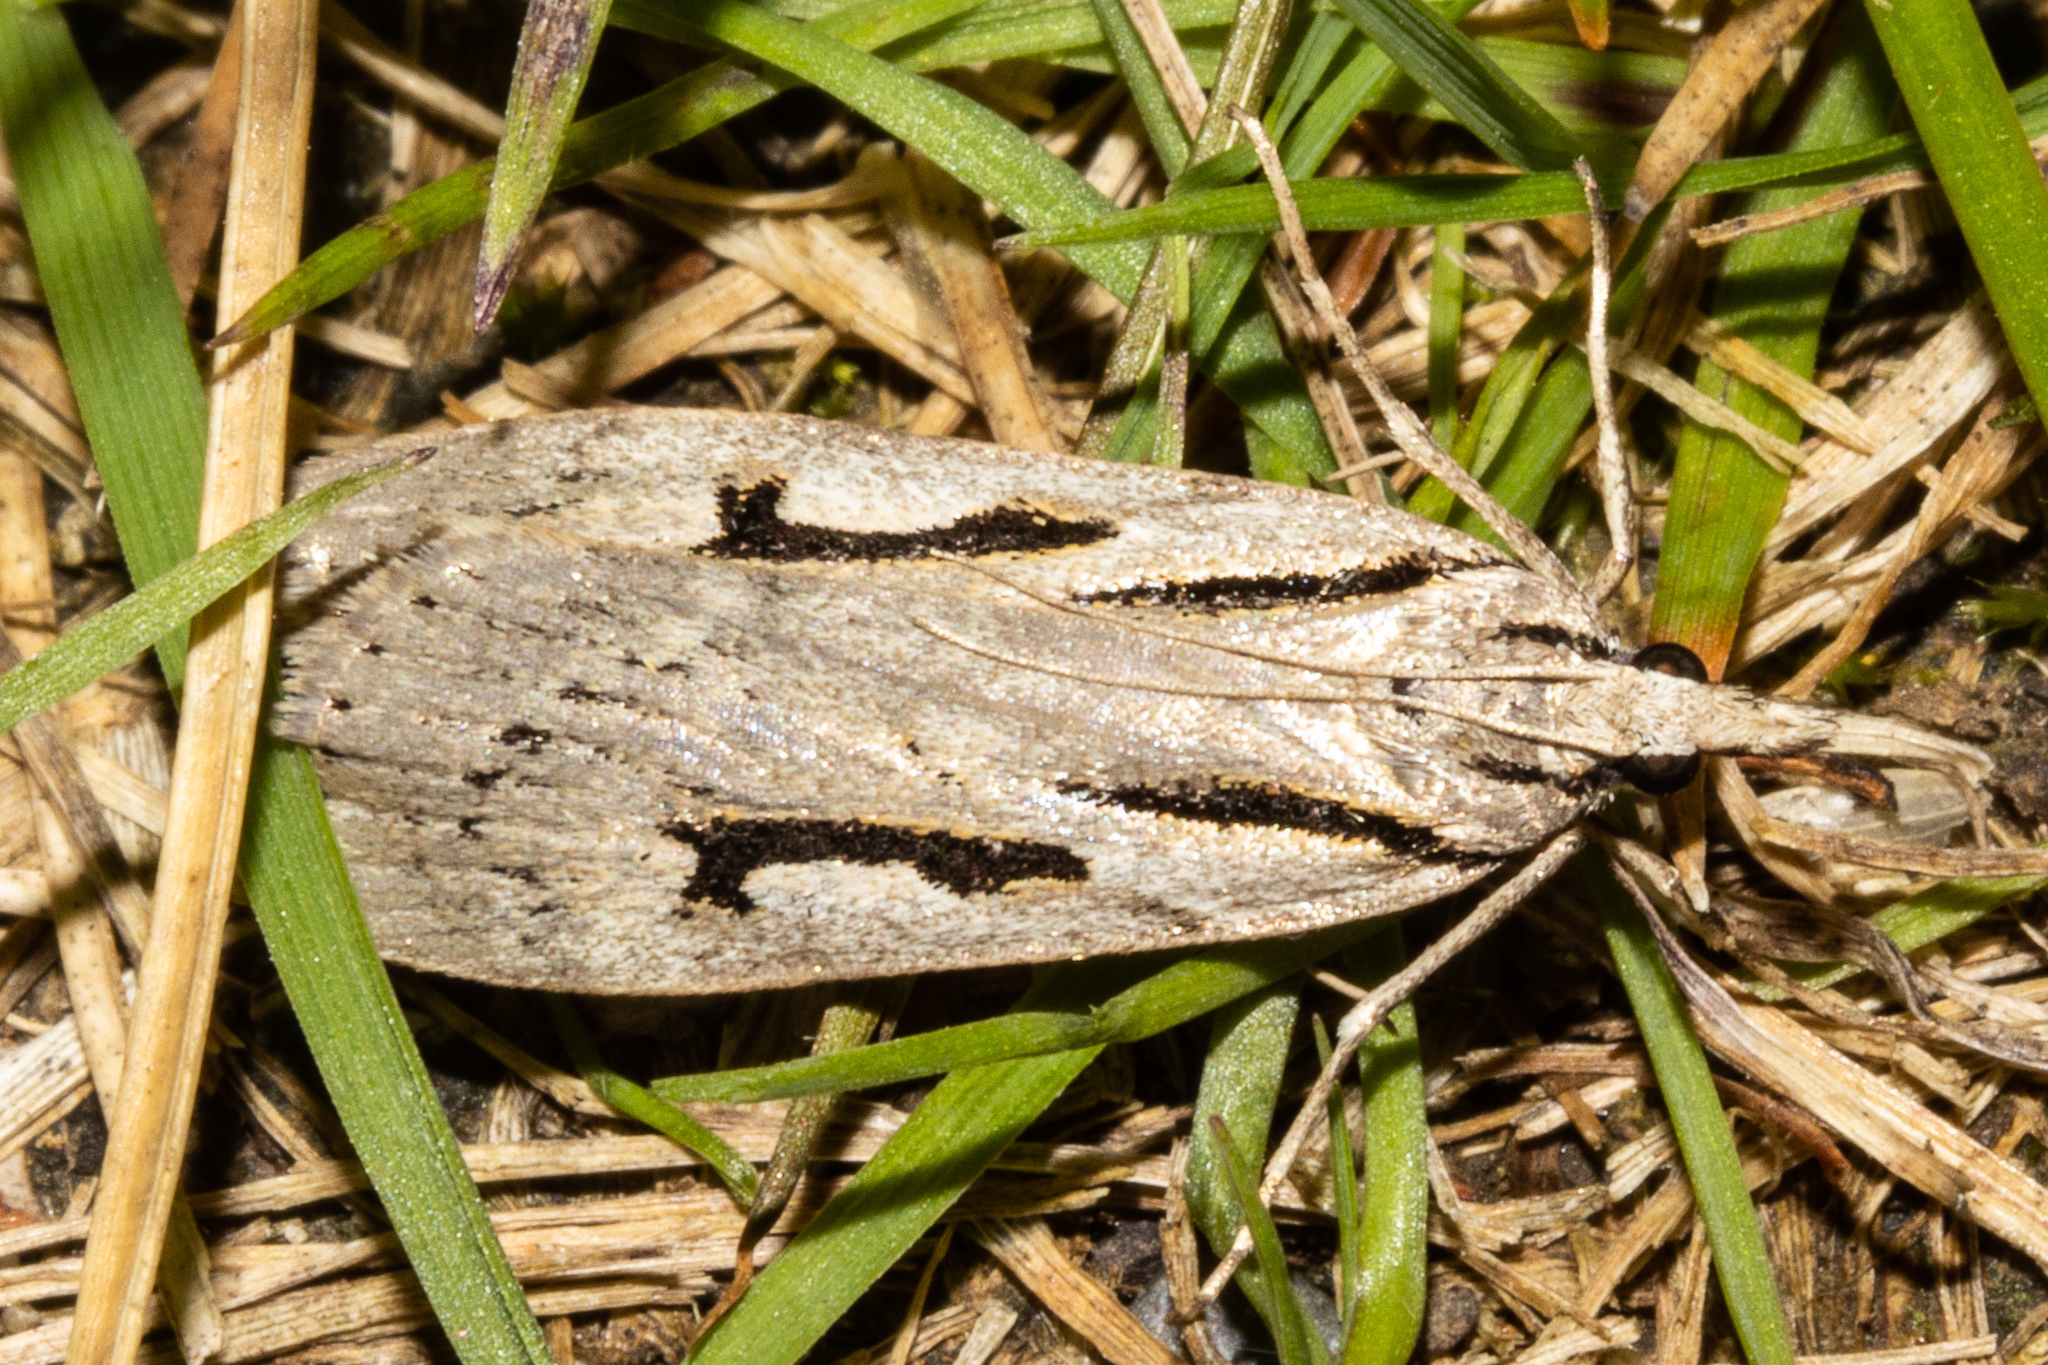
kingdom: Animalia
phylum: Arthropoda
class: Insecta
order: Lepidoptera
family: Crambidae
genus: Scoparia
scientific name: Scoparia rotuellus
